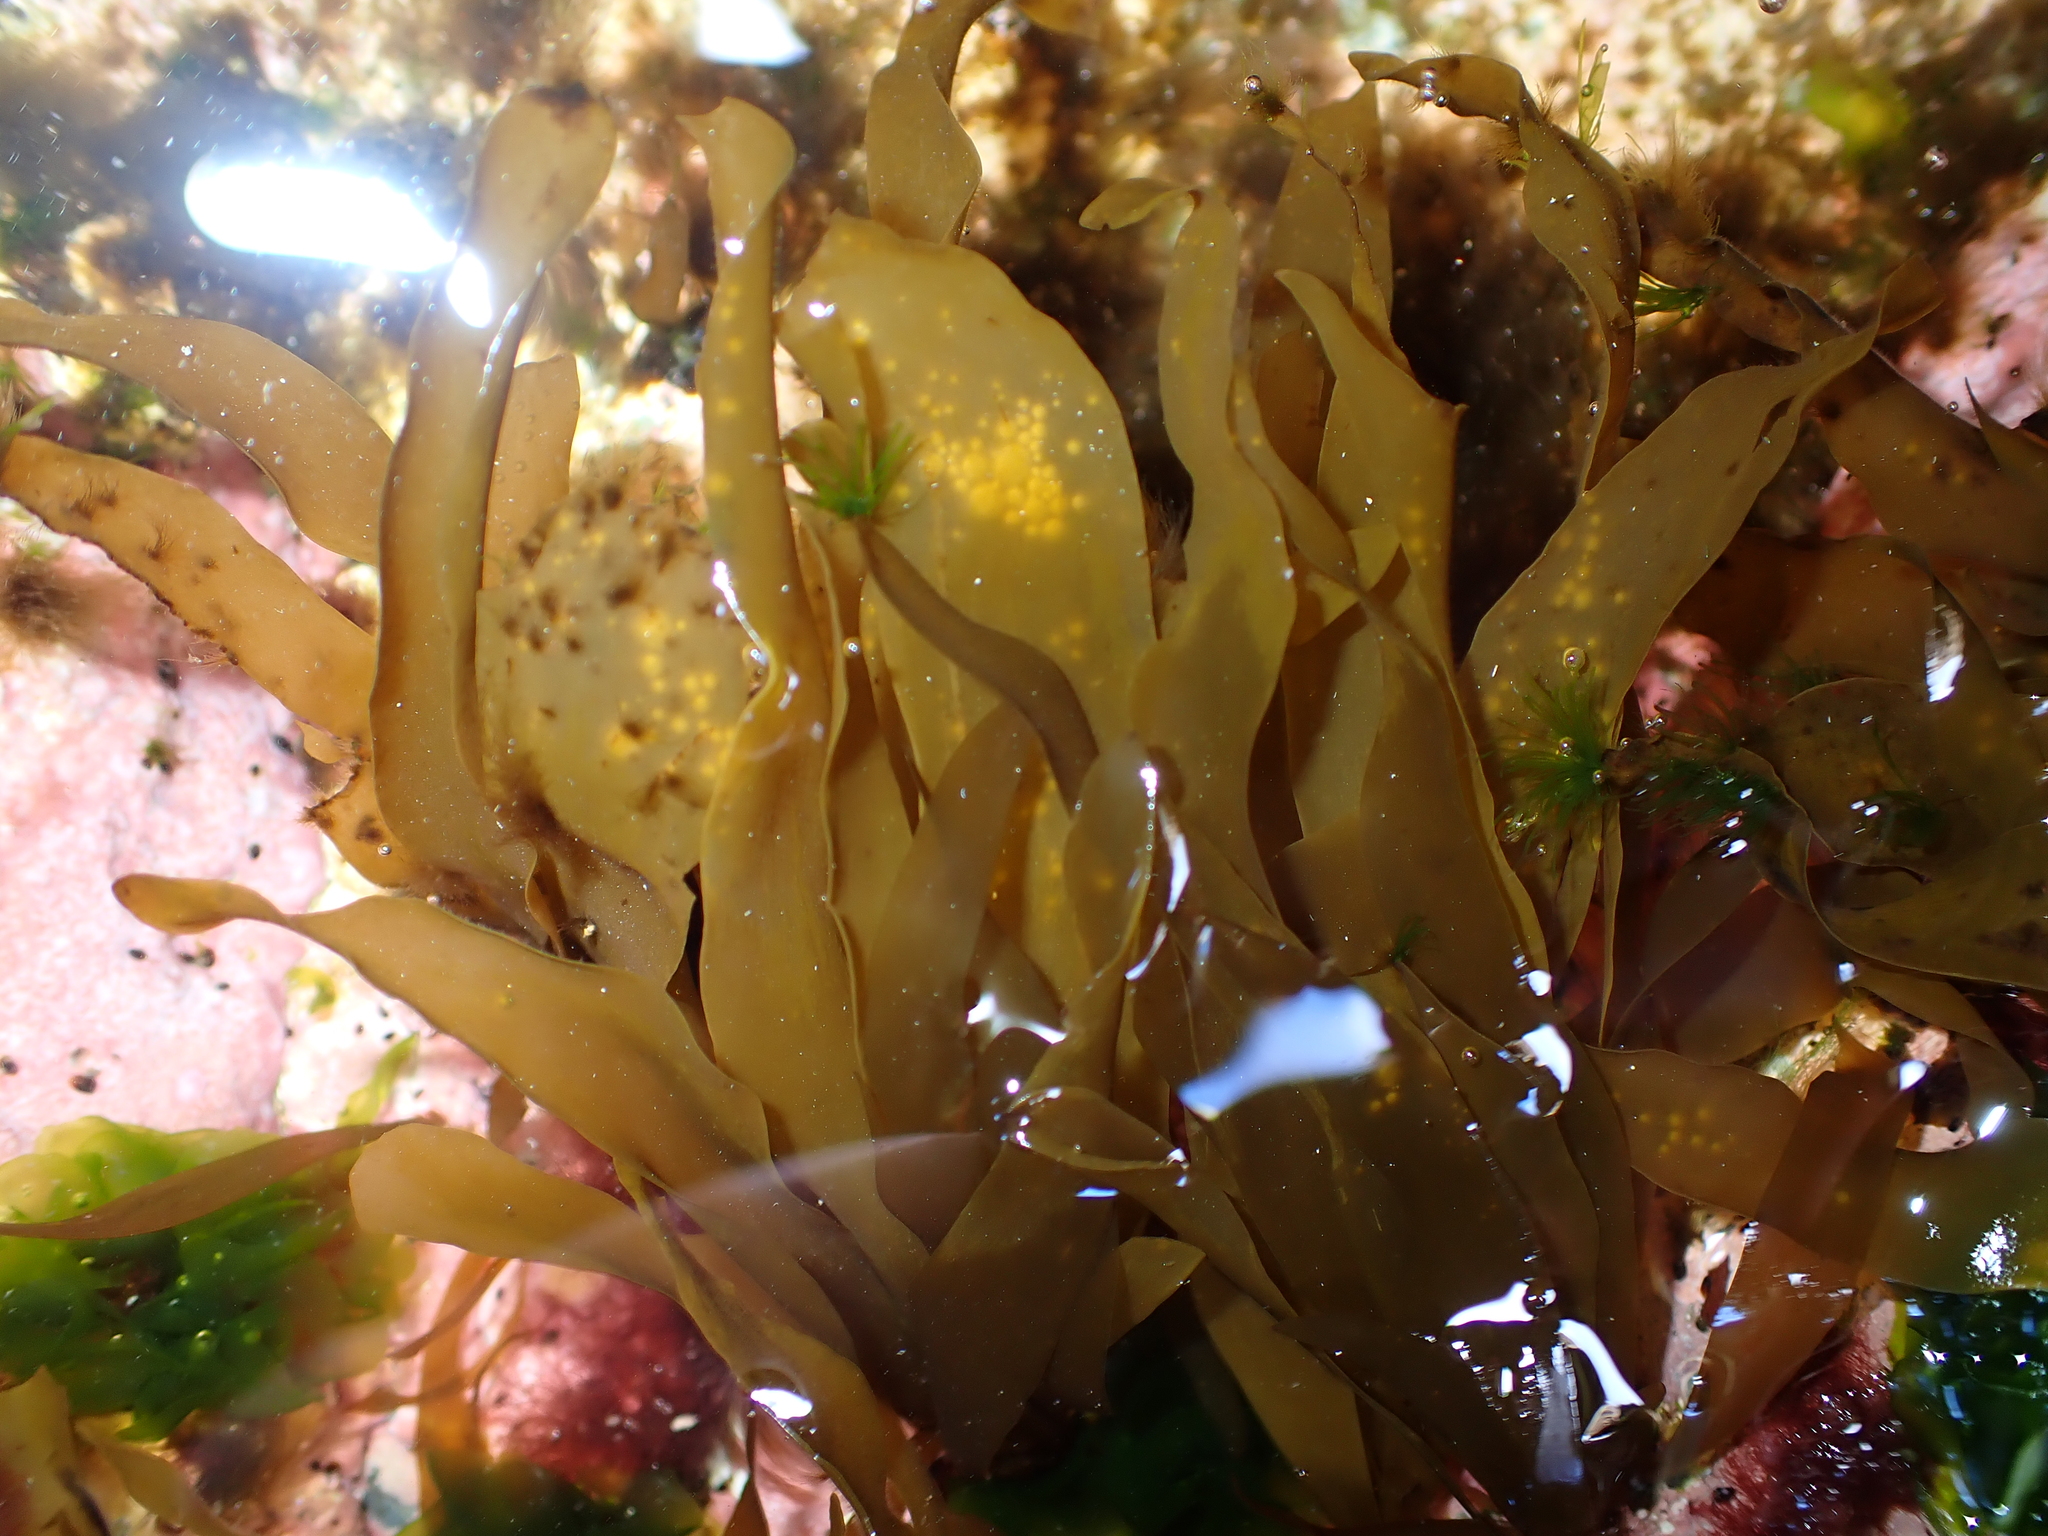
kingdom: Chromista
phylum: Ochrophyta
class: Phaeophyceae
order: Scytosiphonales
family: Scytosiphonaceae
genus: Petalonia
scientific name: Petalonia binghamiae
